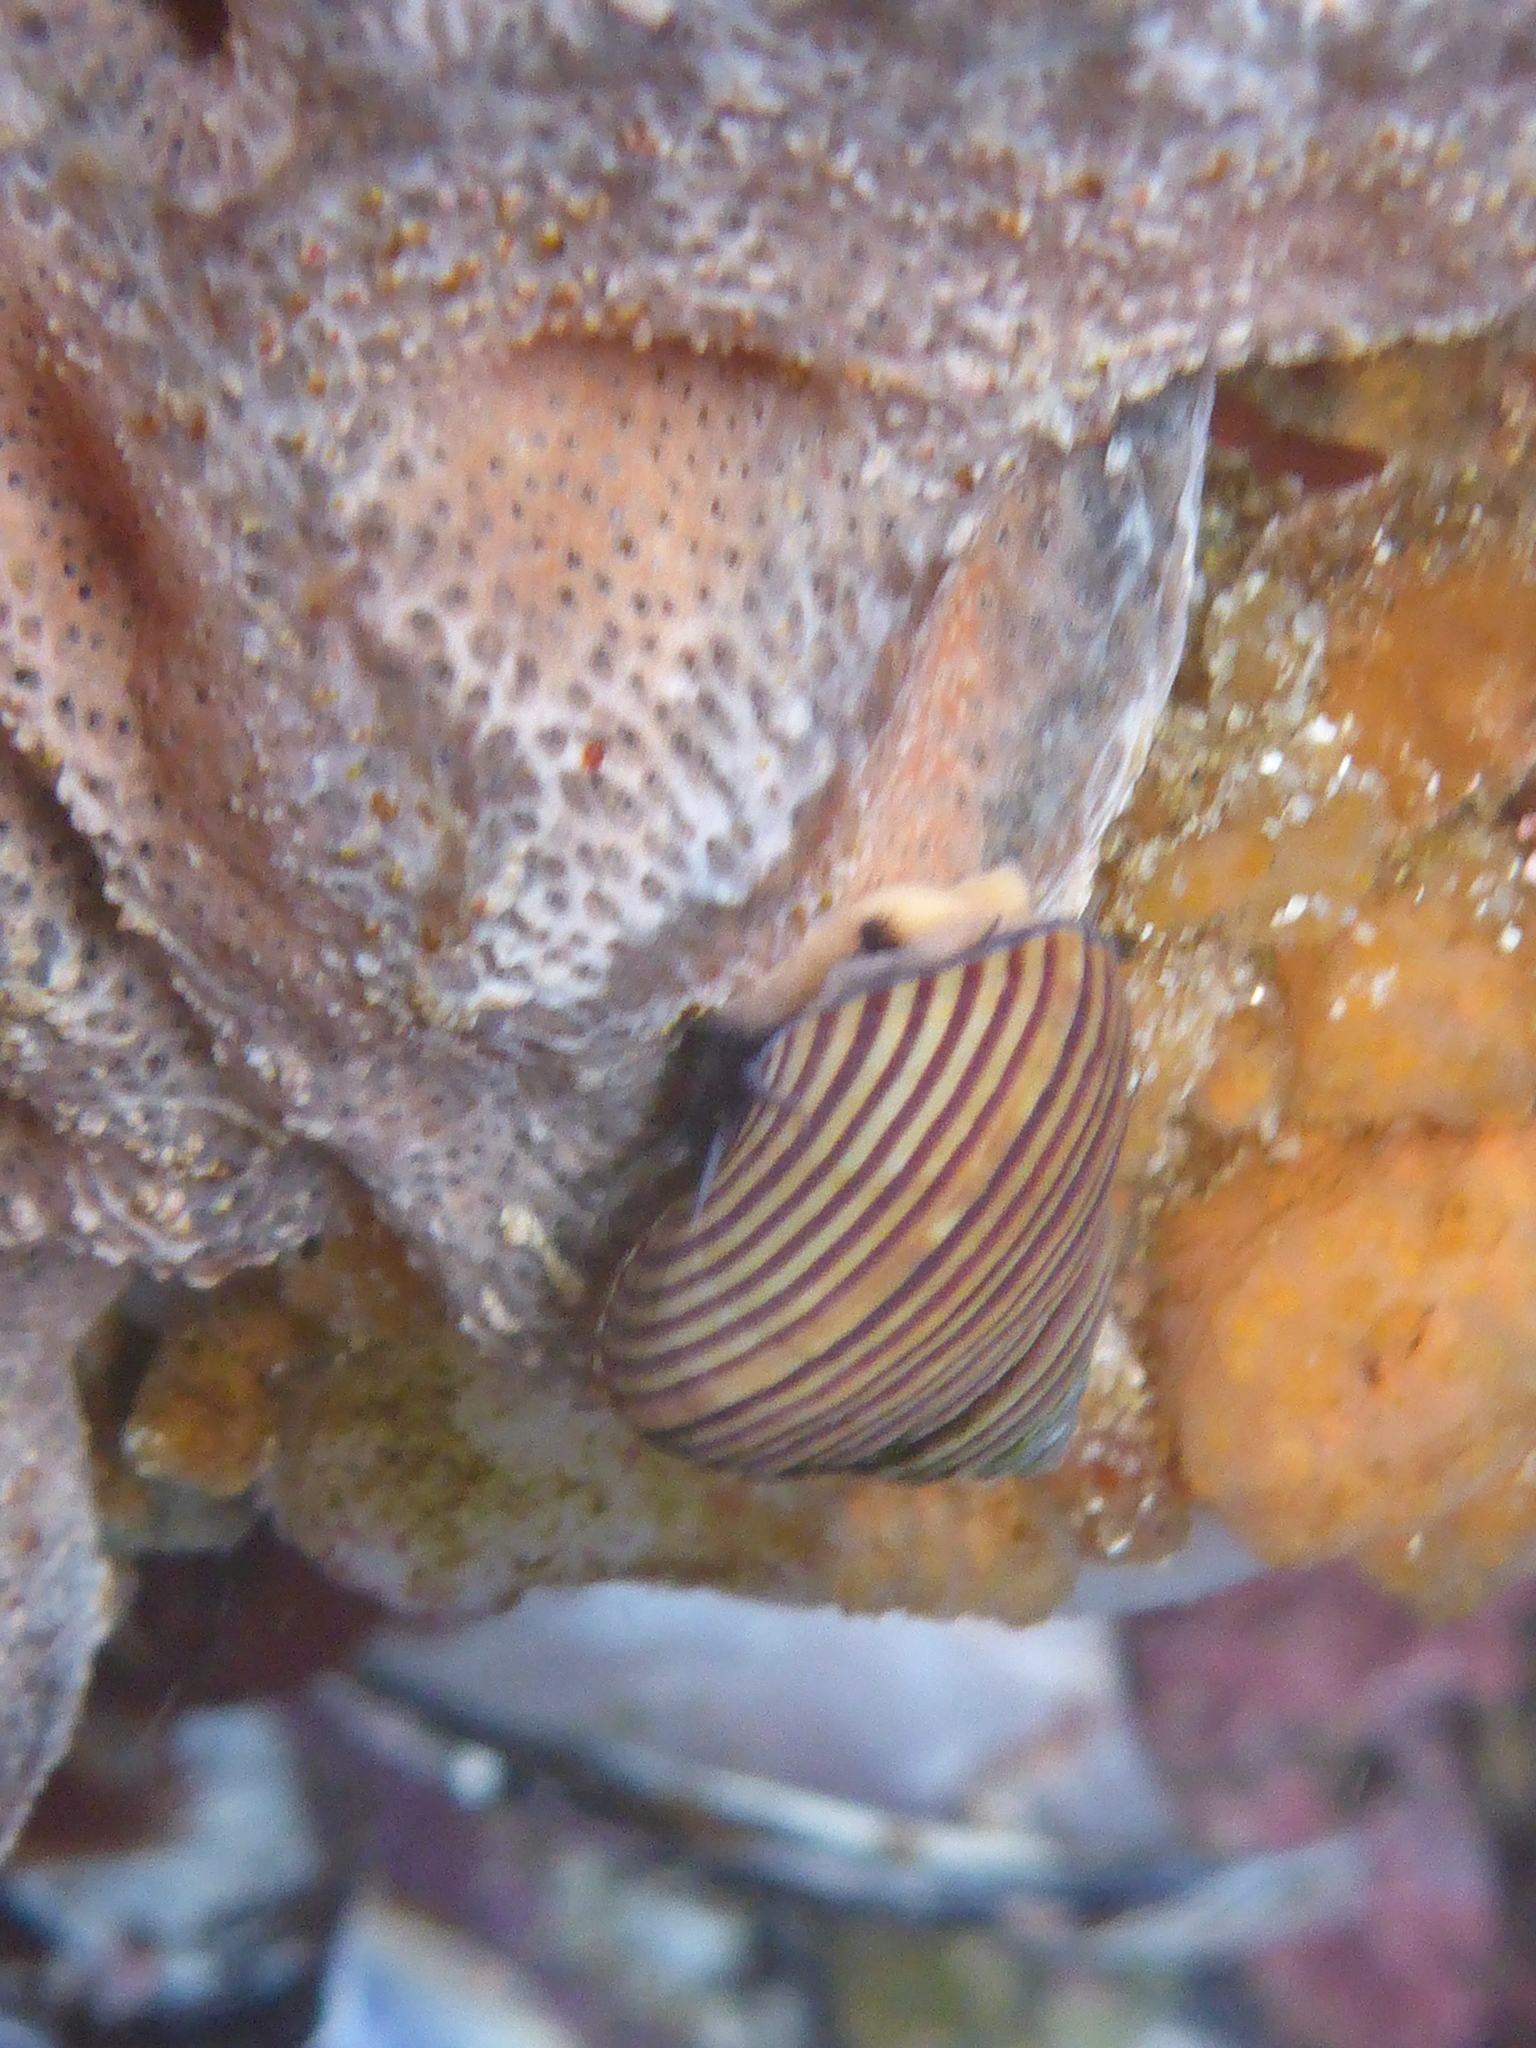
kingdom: Animalia
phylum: Mollusca
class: Gastropoda
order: Trochida
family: Calliostomatidae
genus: Calliostoma
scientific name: Calliostoma ligatum
